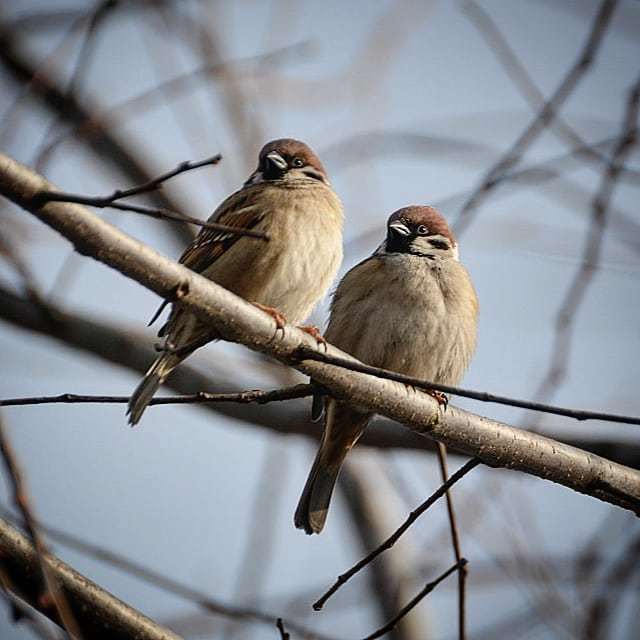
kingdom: Animalia
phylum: Chordata
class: Aves
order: Passeriformes
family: Passeridae
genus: Passer
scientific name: Passer montanus
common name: Eurasian tree sparrow
